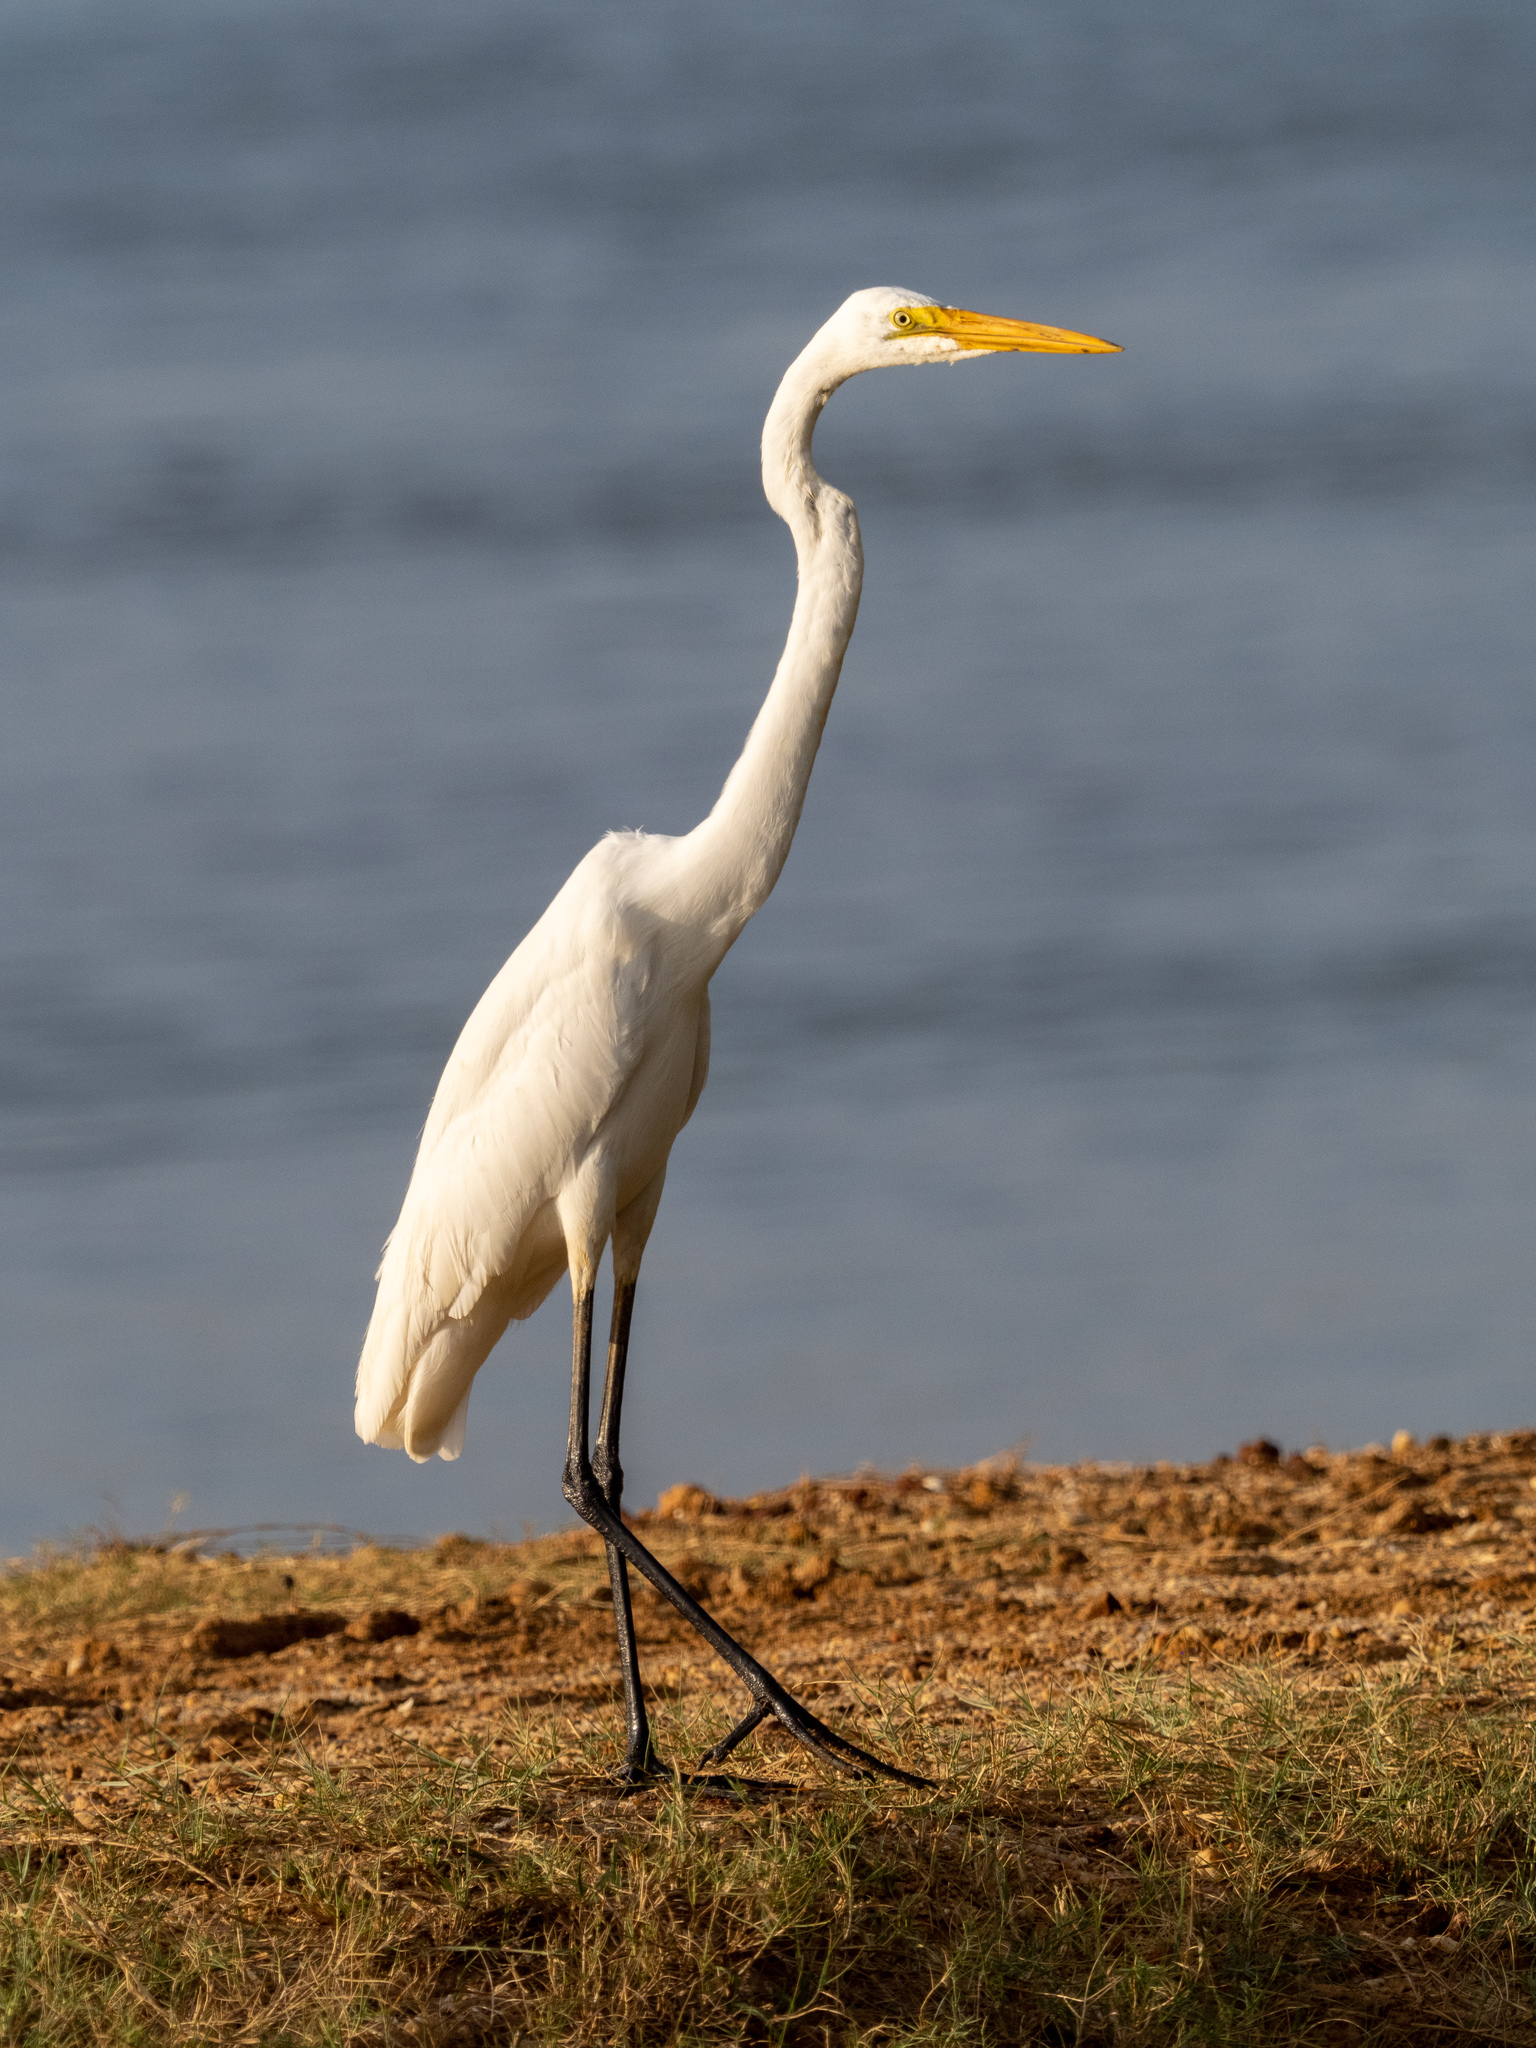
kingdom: Animalia
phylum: Chordata
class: Aves
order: Pelecaniformes
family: Ardeidae
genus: Ardea
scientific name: Ardea alba
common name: Great egret
